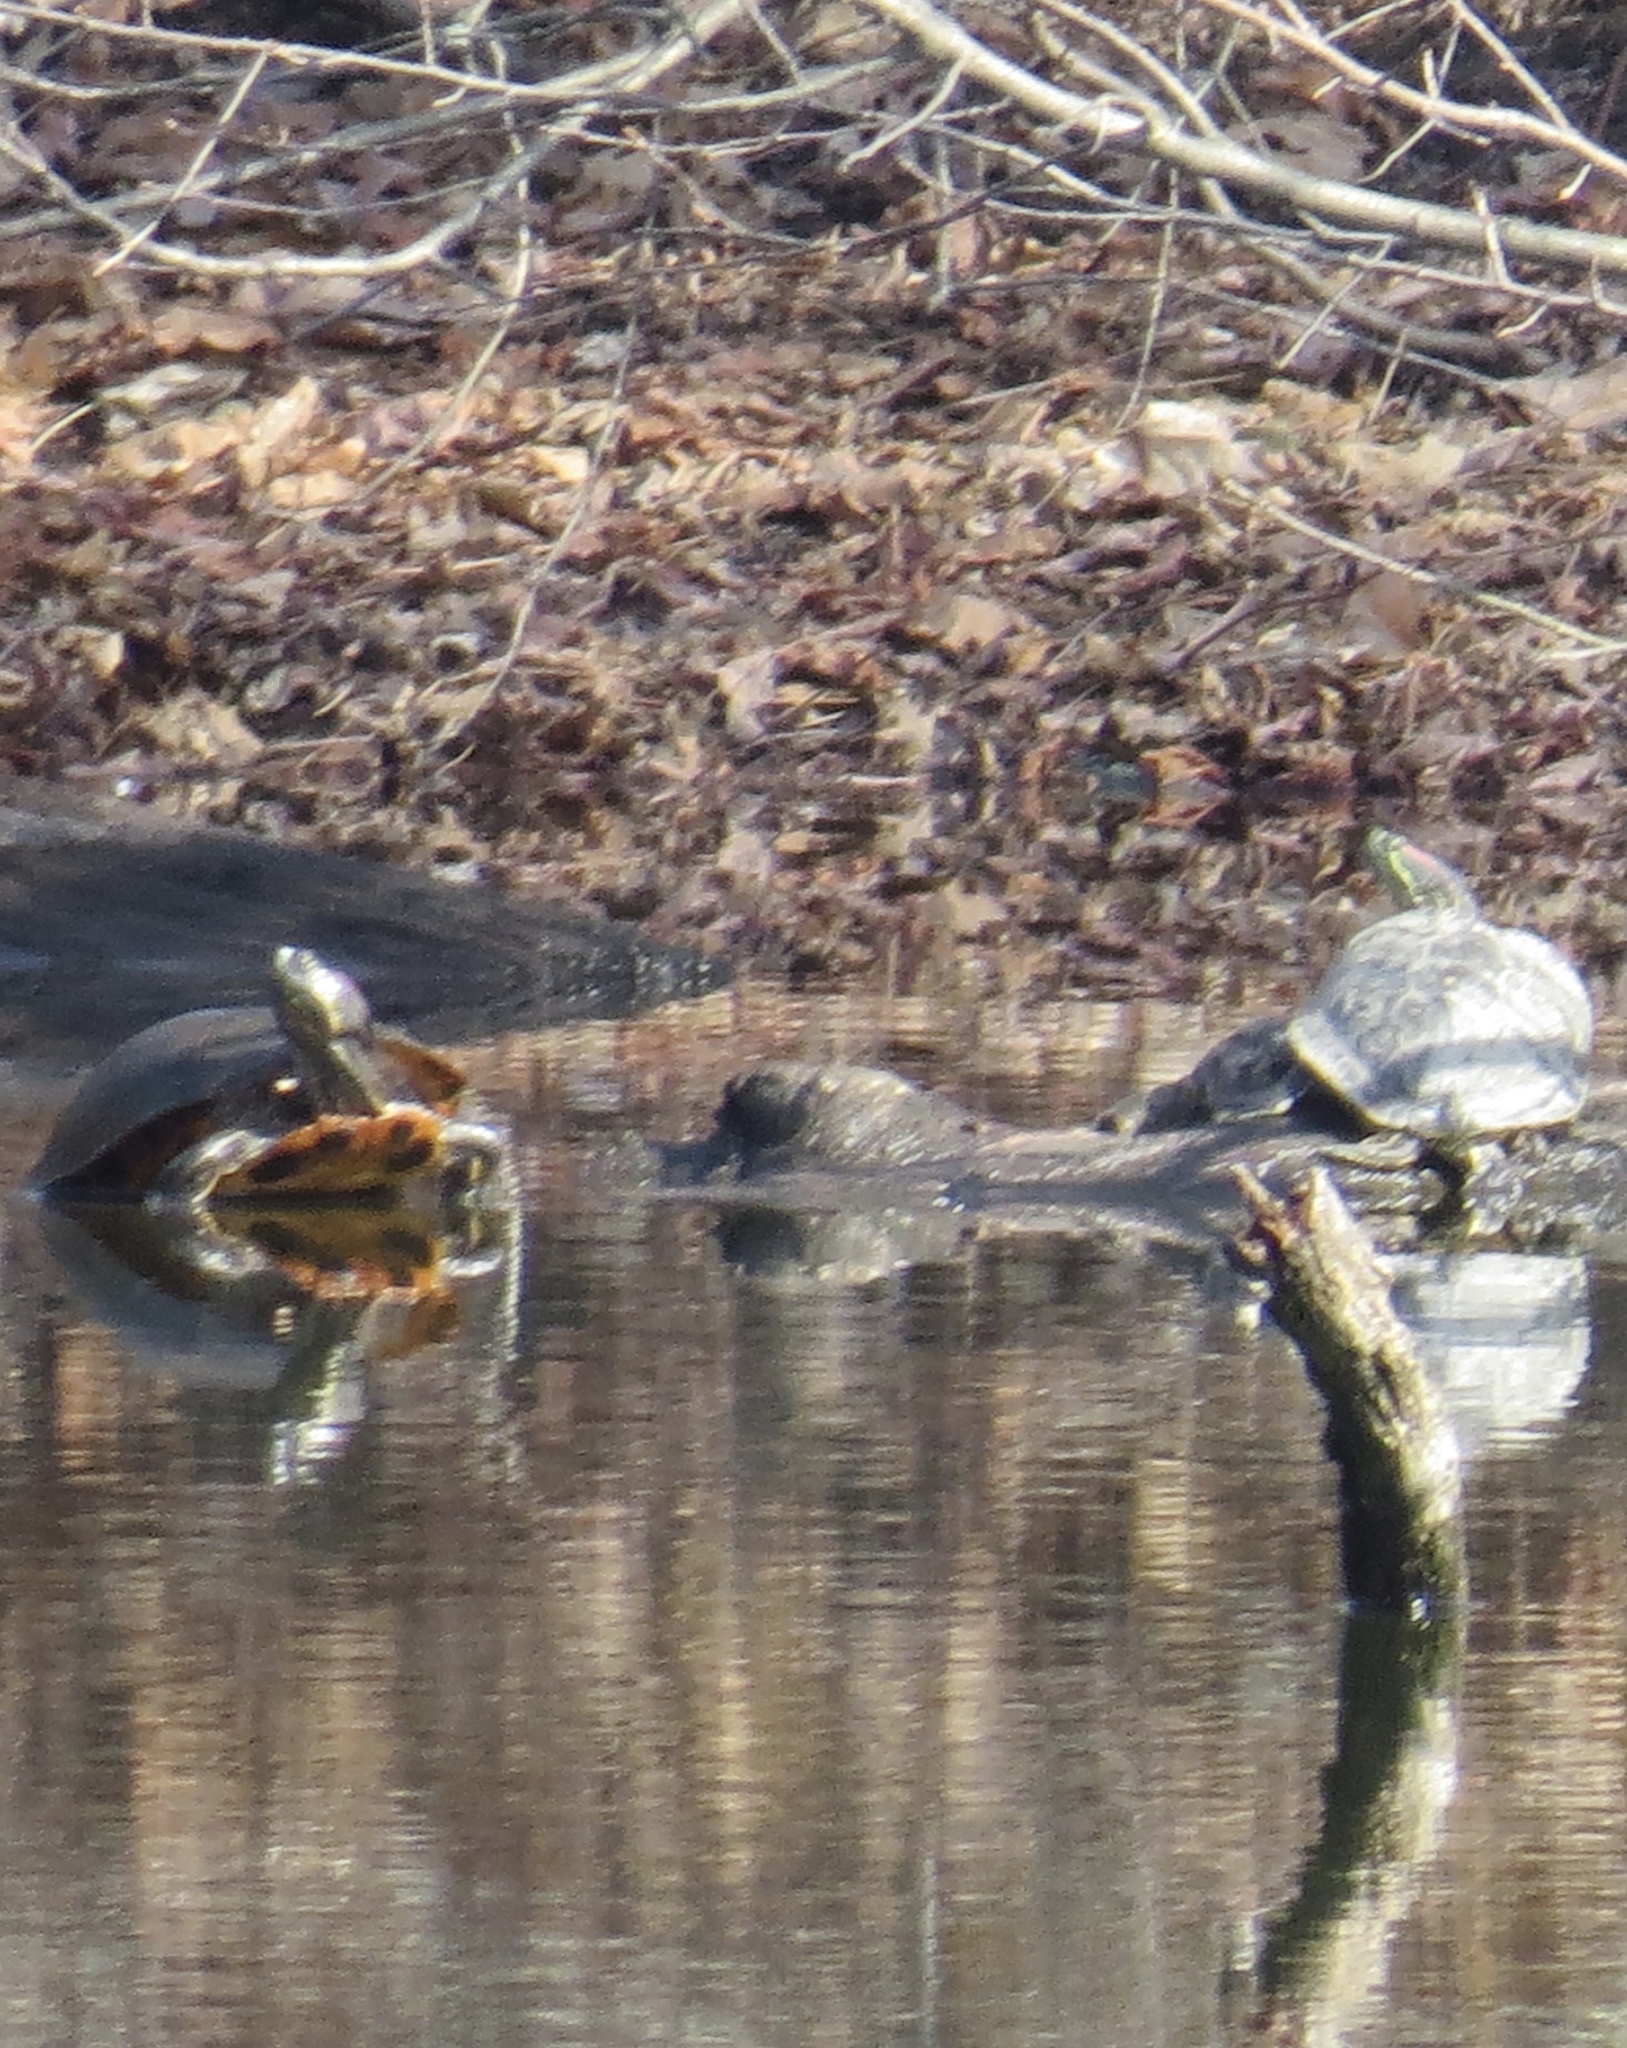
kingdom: Animalia
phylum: Chordata
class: Testudines
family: Emydidae
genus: Trachemys
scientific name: Trachemys scripta
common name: Slider
